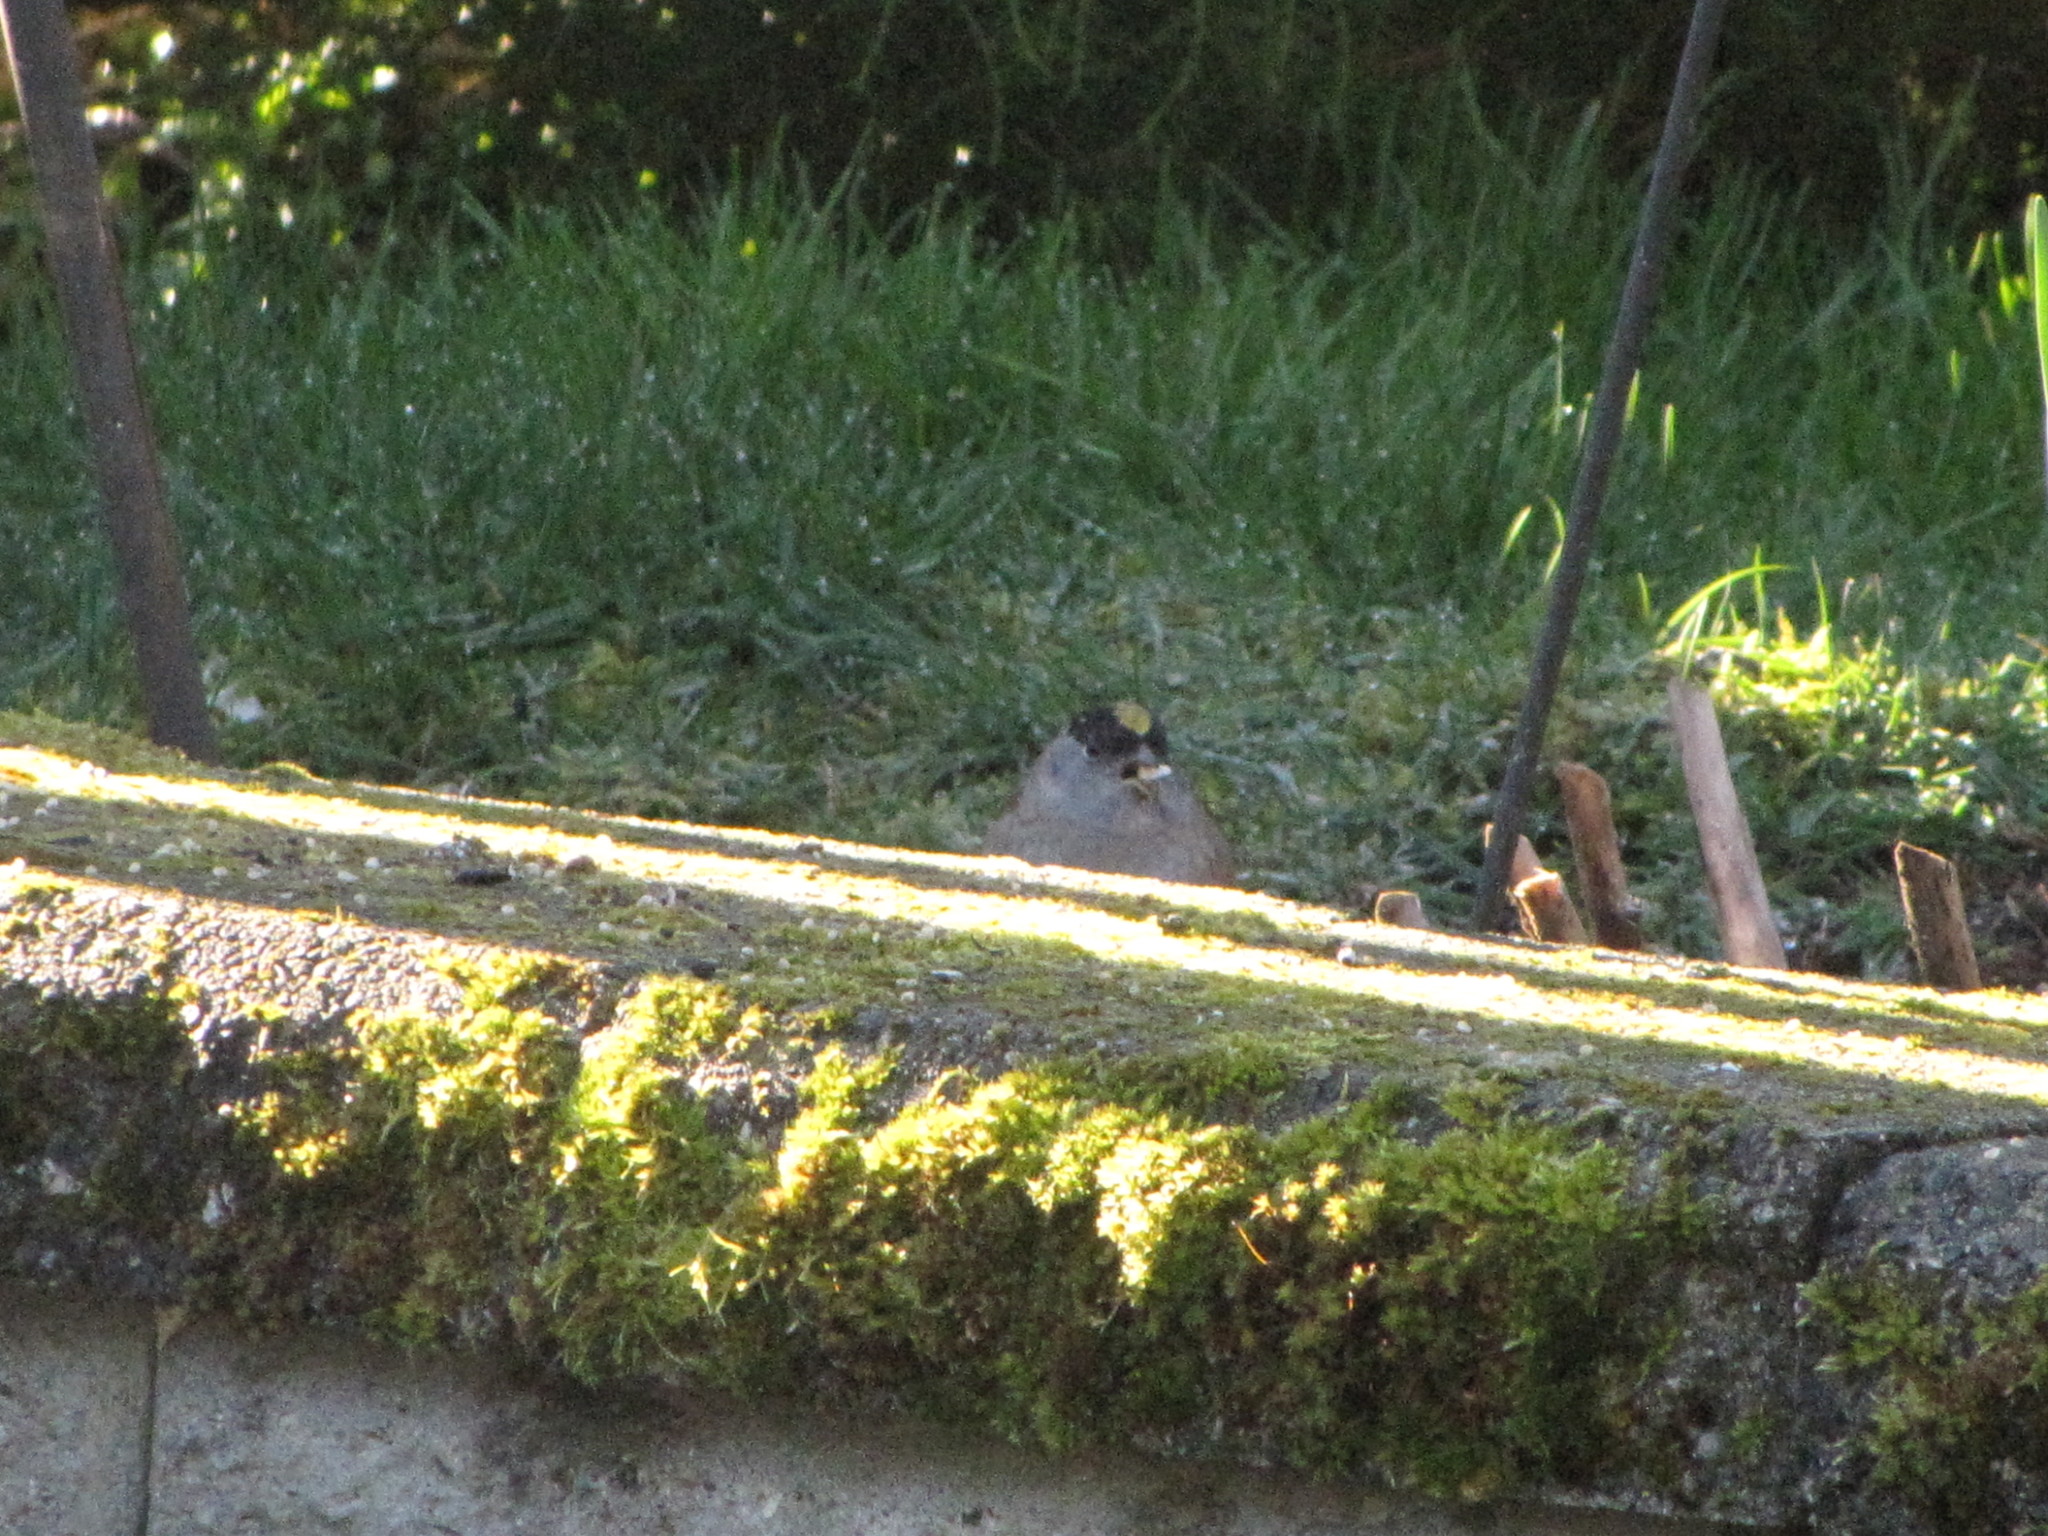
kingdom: Animalia
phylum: Chordata
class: Aves
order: Passeriformes
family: Passerellidae
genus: Zonotrichia
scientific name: Zonotrichia atricapilla
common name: Golden-crowned sparrow
